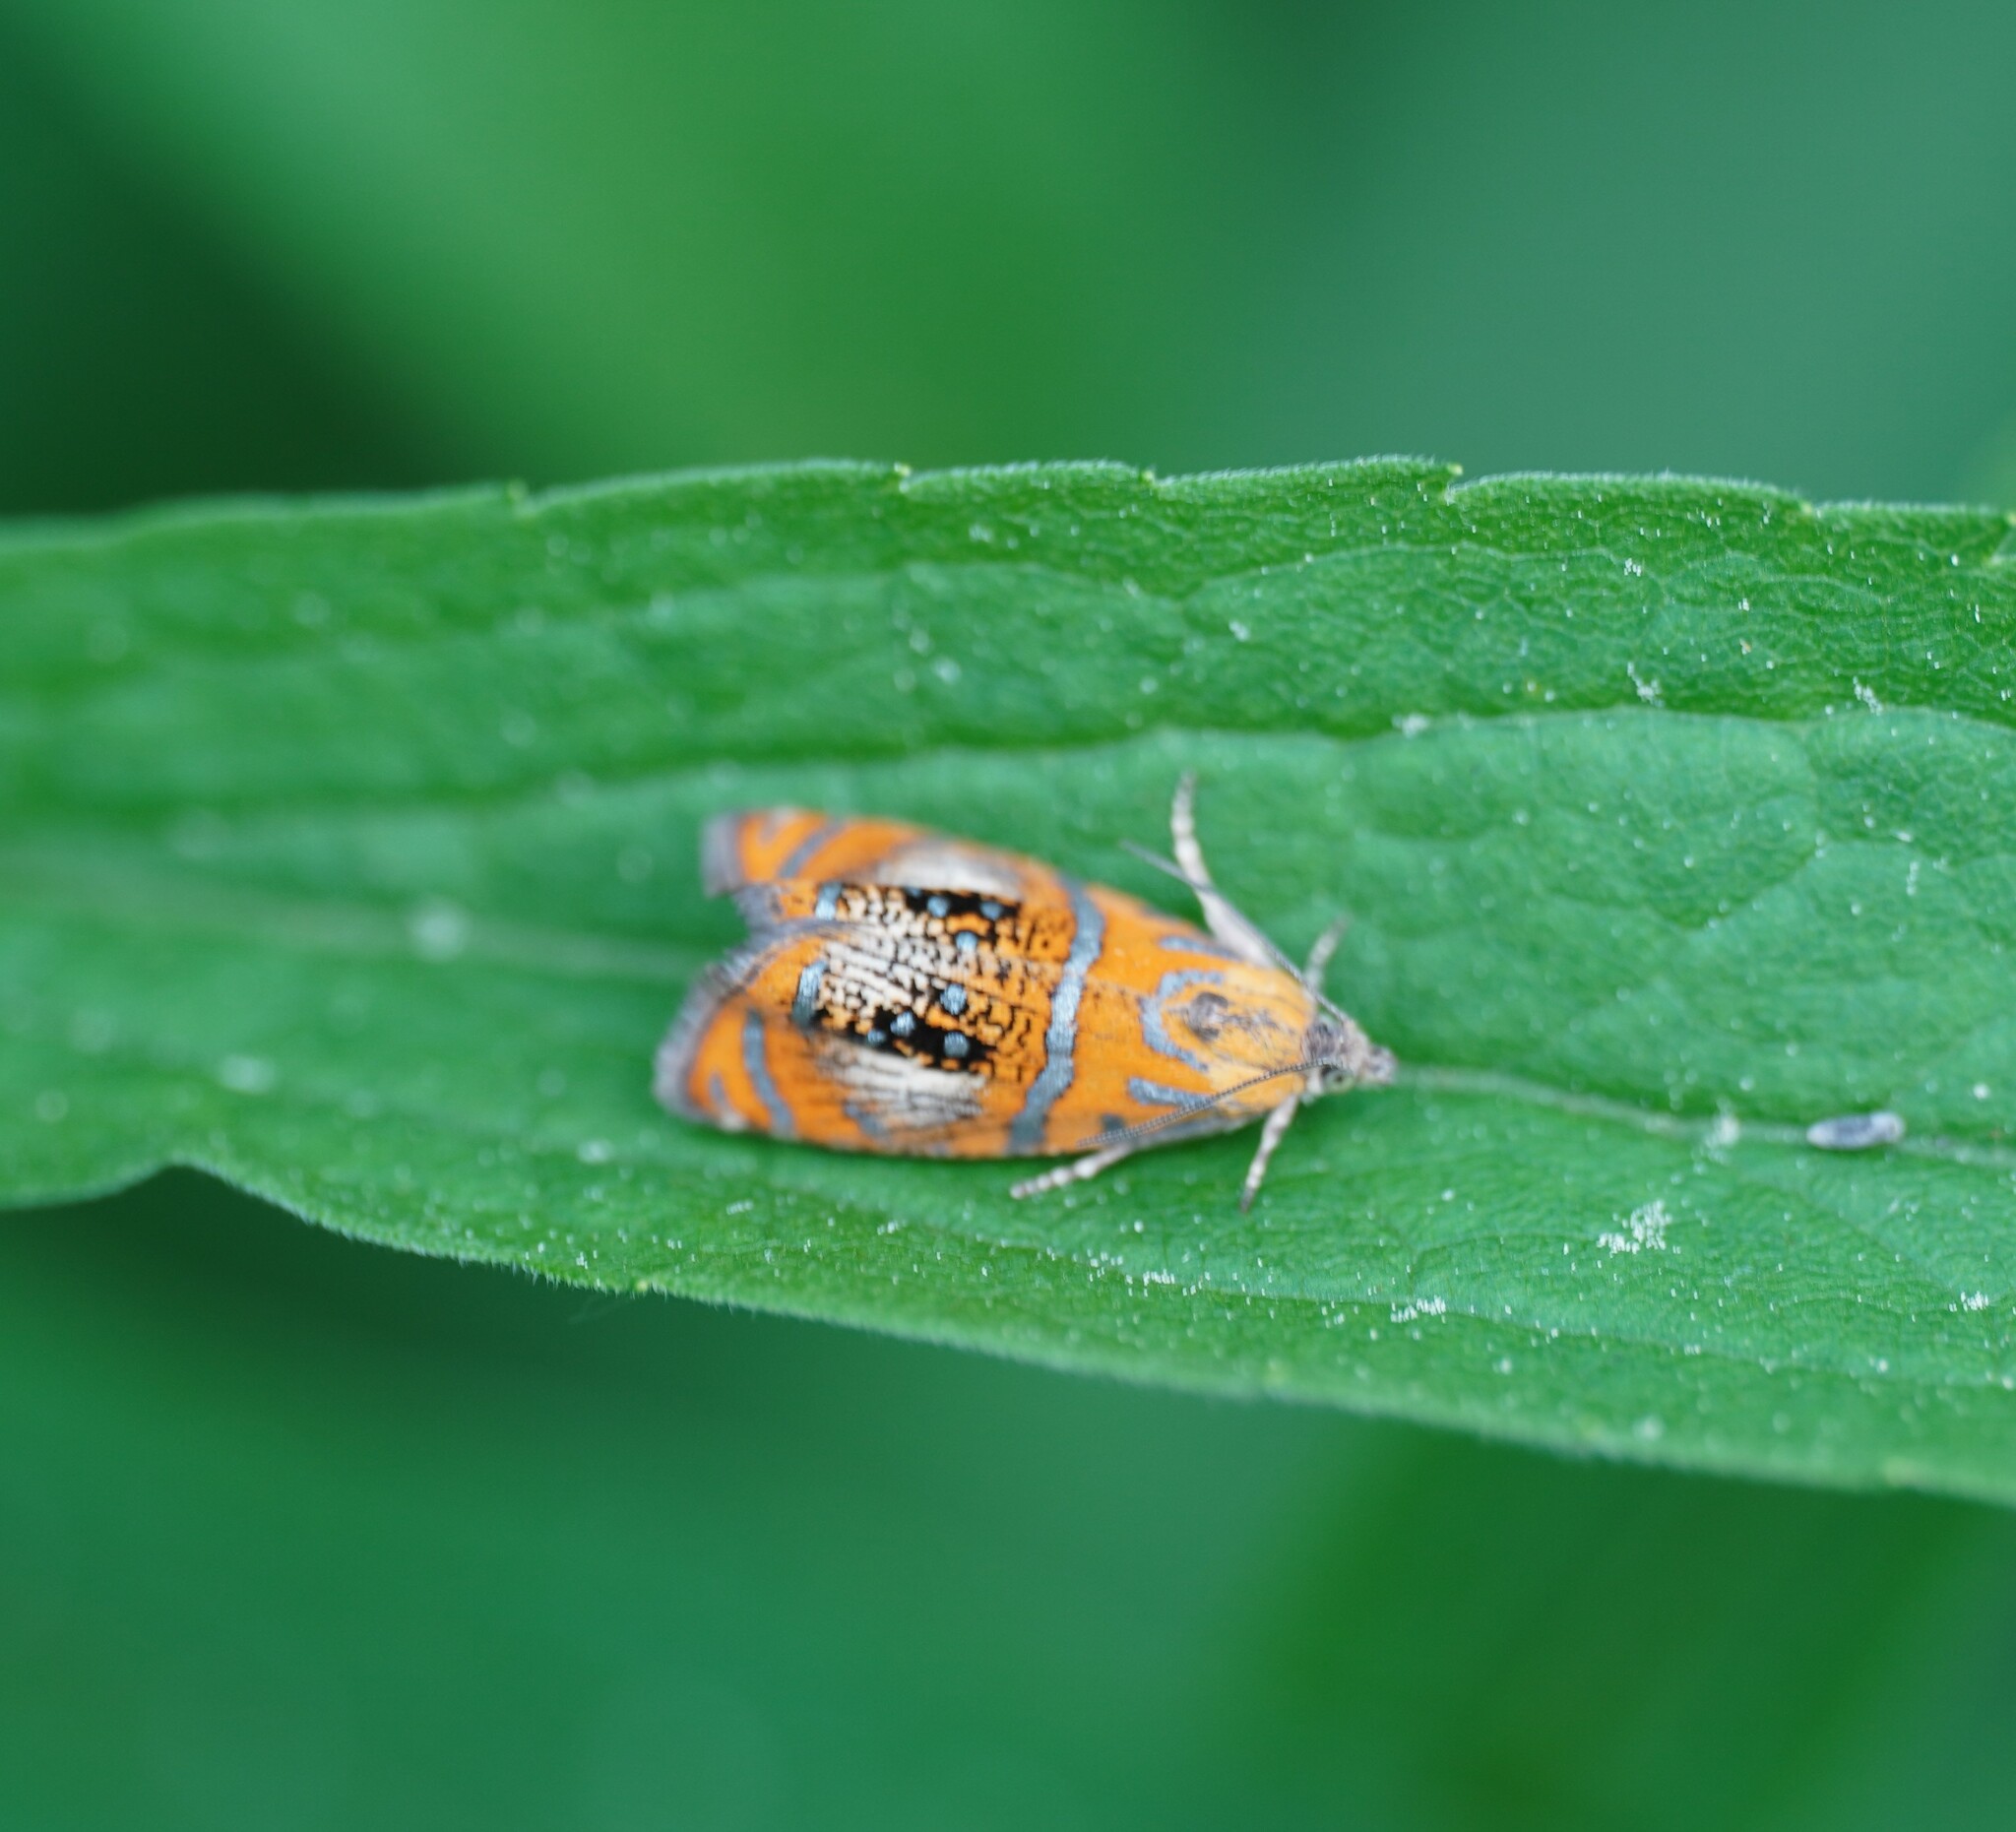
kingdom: Animalia
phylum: Arthropoda
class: Insecta
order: Lepidoptera
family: Tortricidae
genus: Olethreutes
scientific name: Olethreutes arcuella
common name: Arched marble
